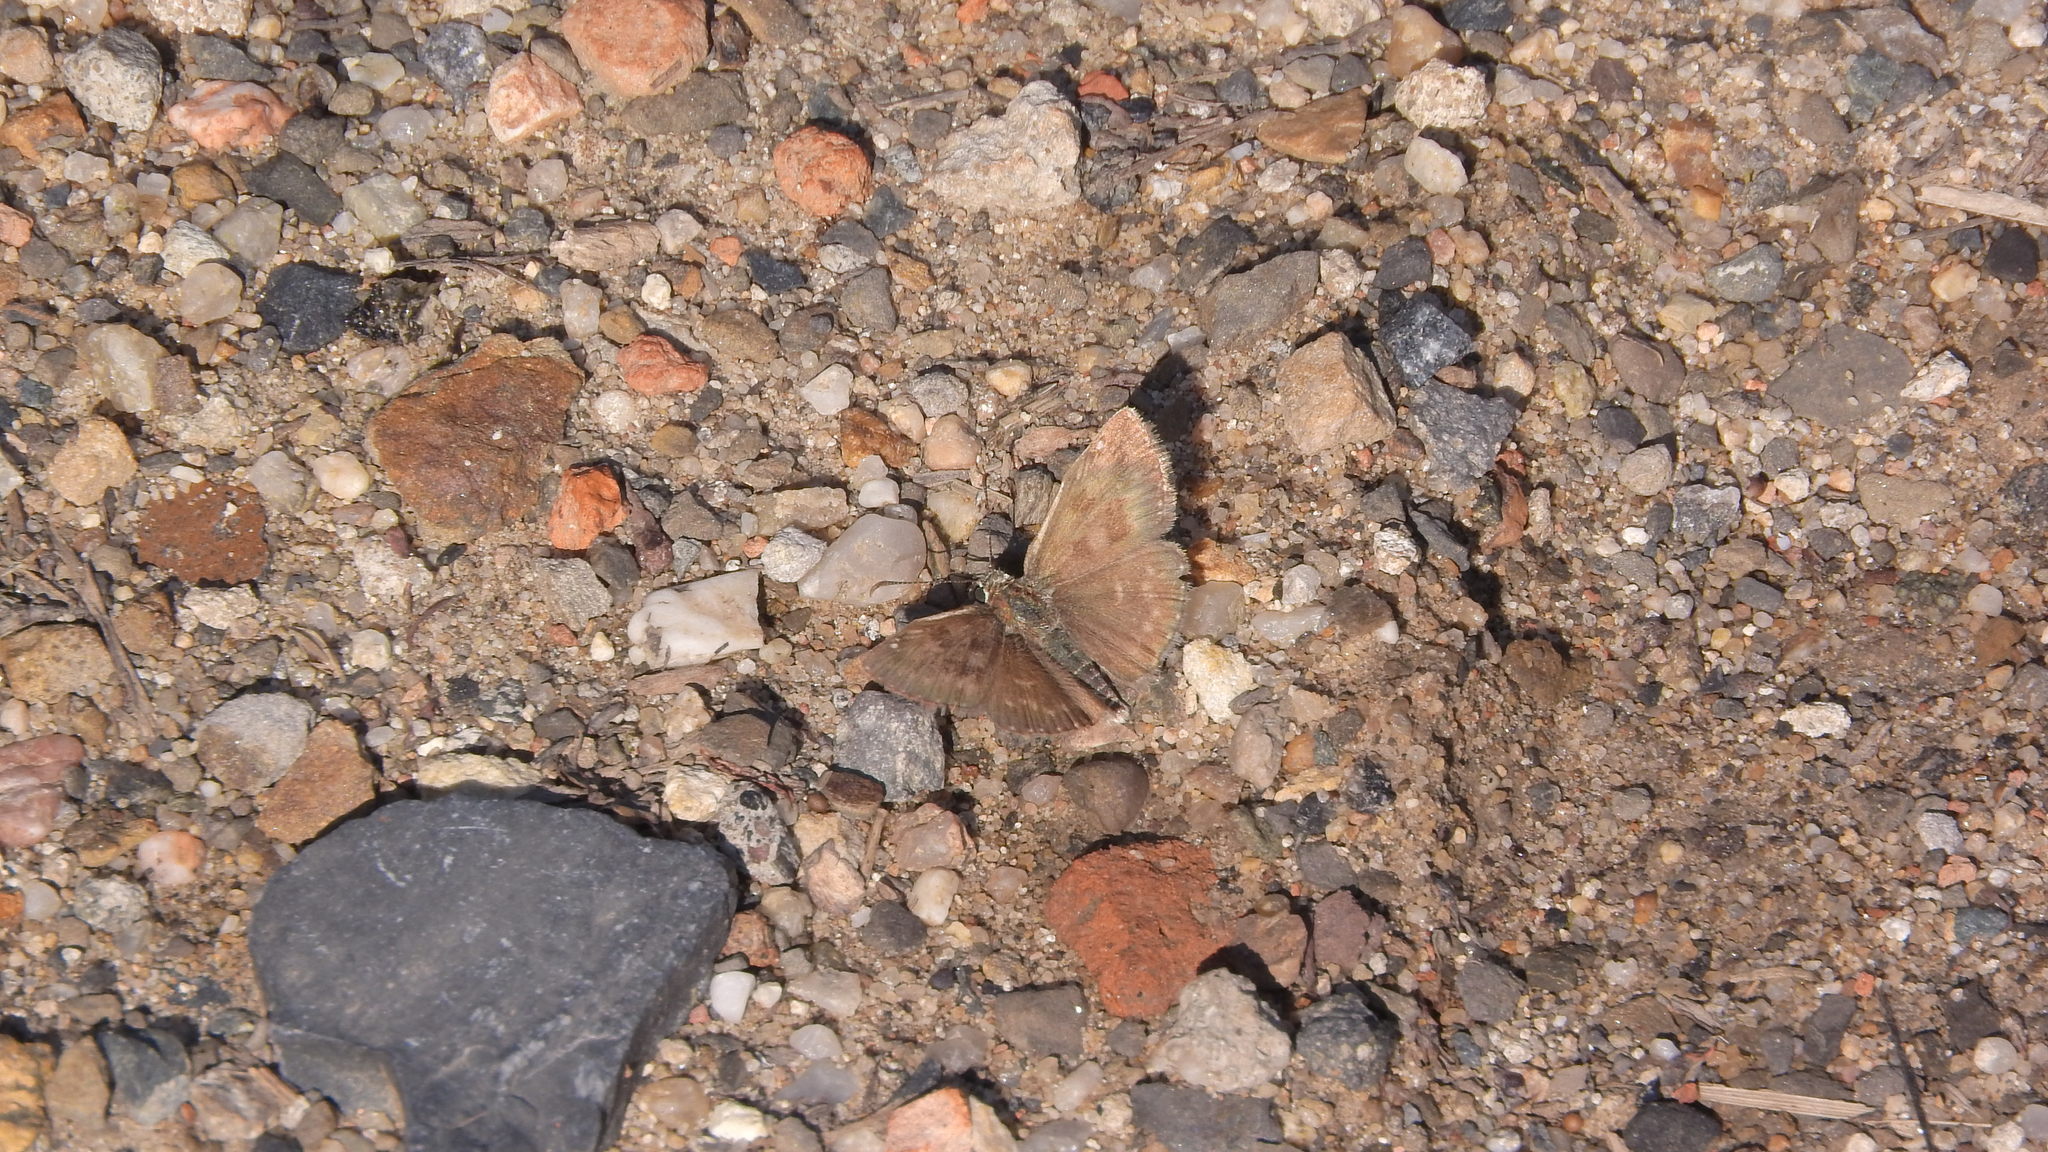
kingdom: Animalia
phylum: Arthropoda
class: Insecta
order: Lepidoptera
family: Hesperiidae
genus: Erynnis
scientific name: Erynnis tages
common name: Dingy skipper
